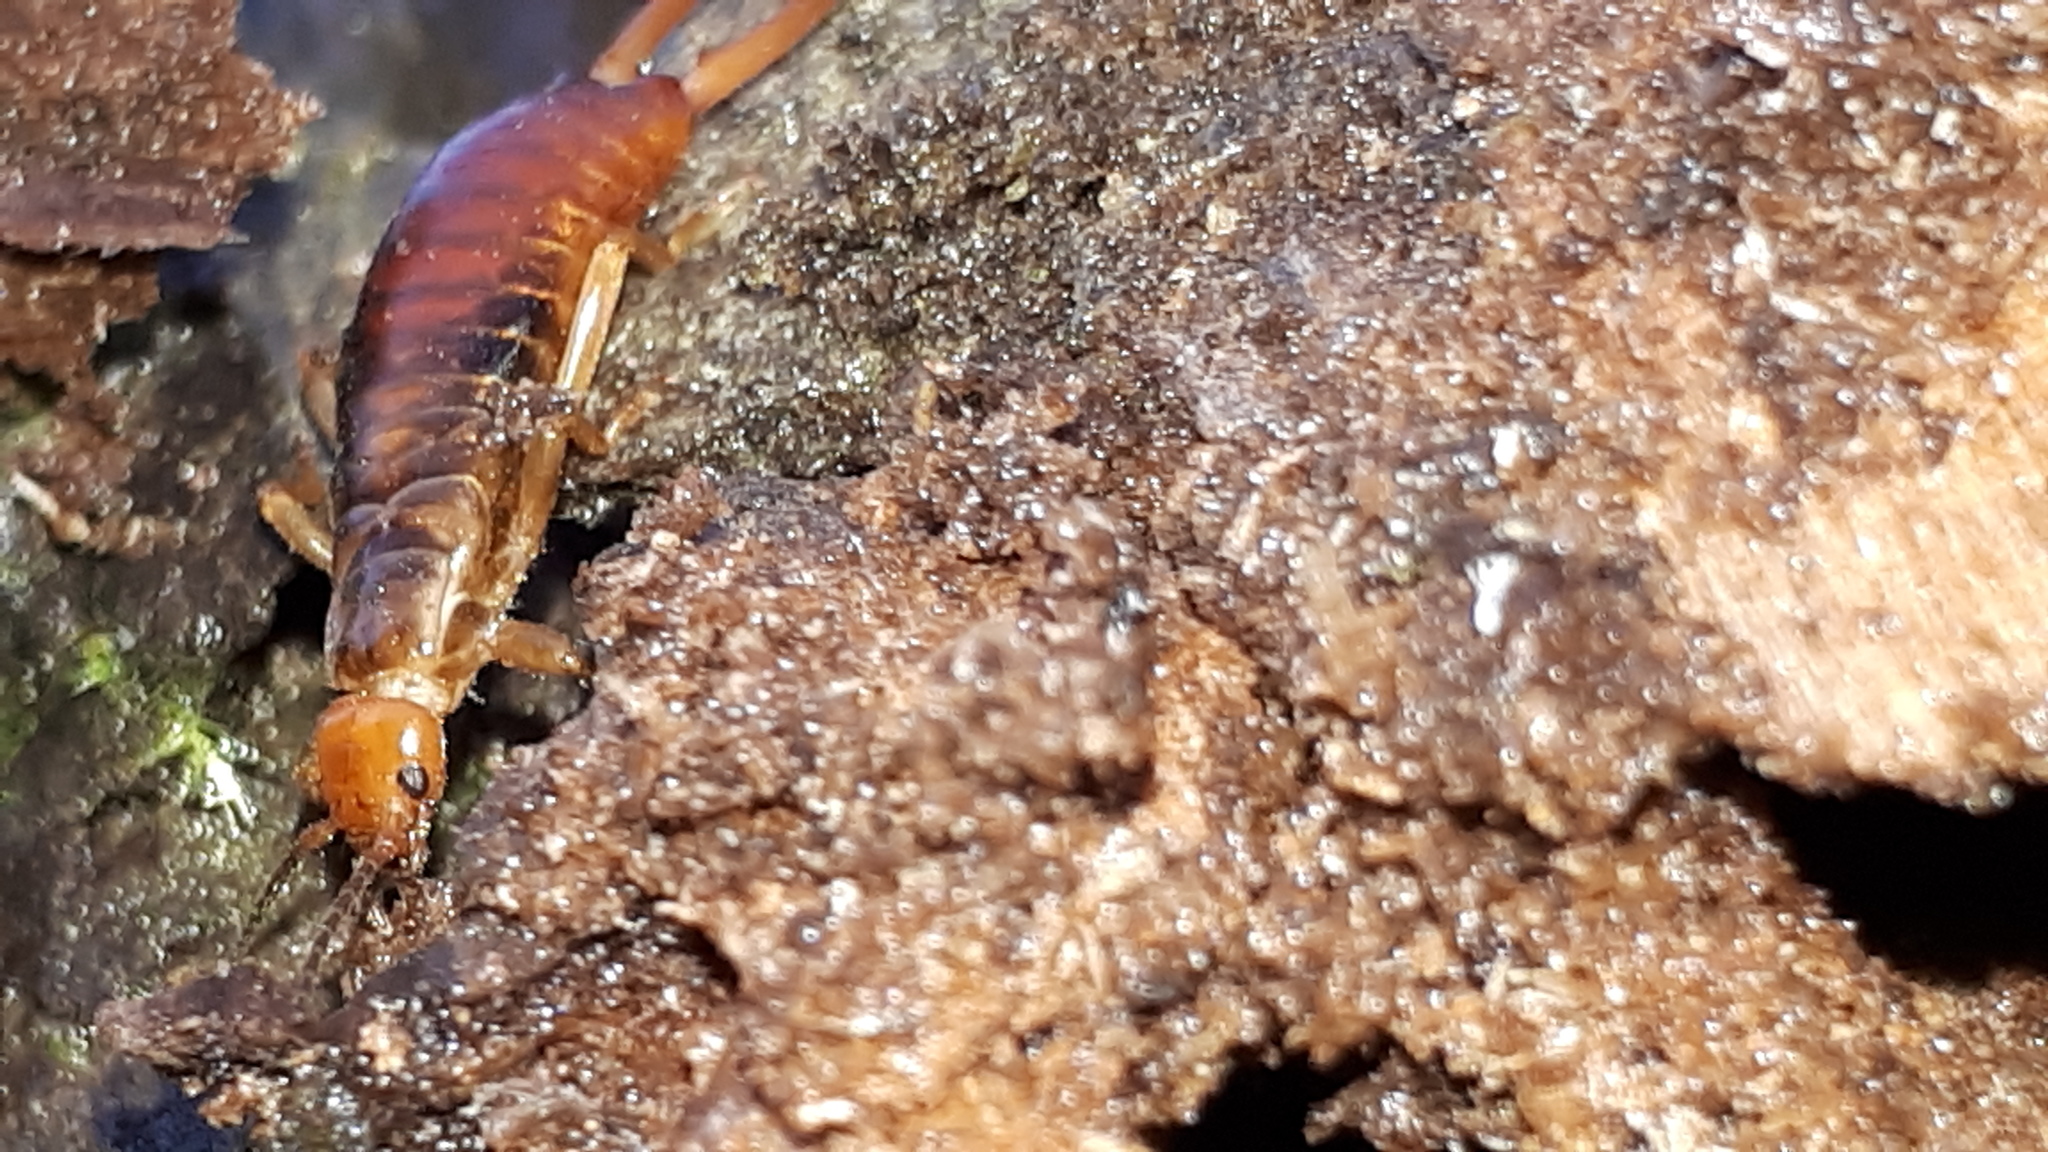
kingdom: Animalia
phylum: Arthropoda
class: Insecta
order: Dermaptera
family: Forficulidae
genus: Chelidurella
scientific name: Chelidurella acanthopygia
